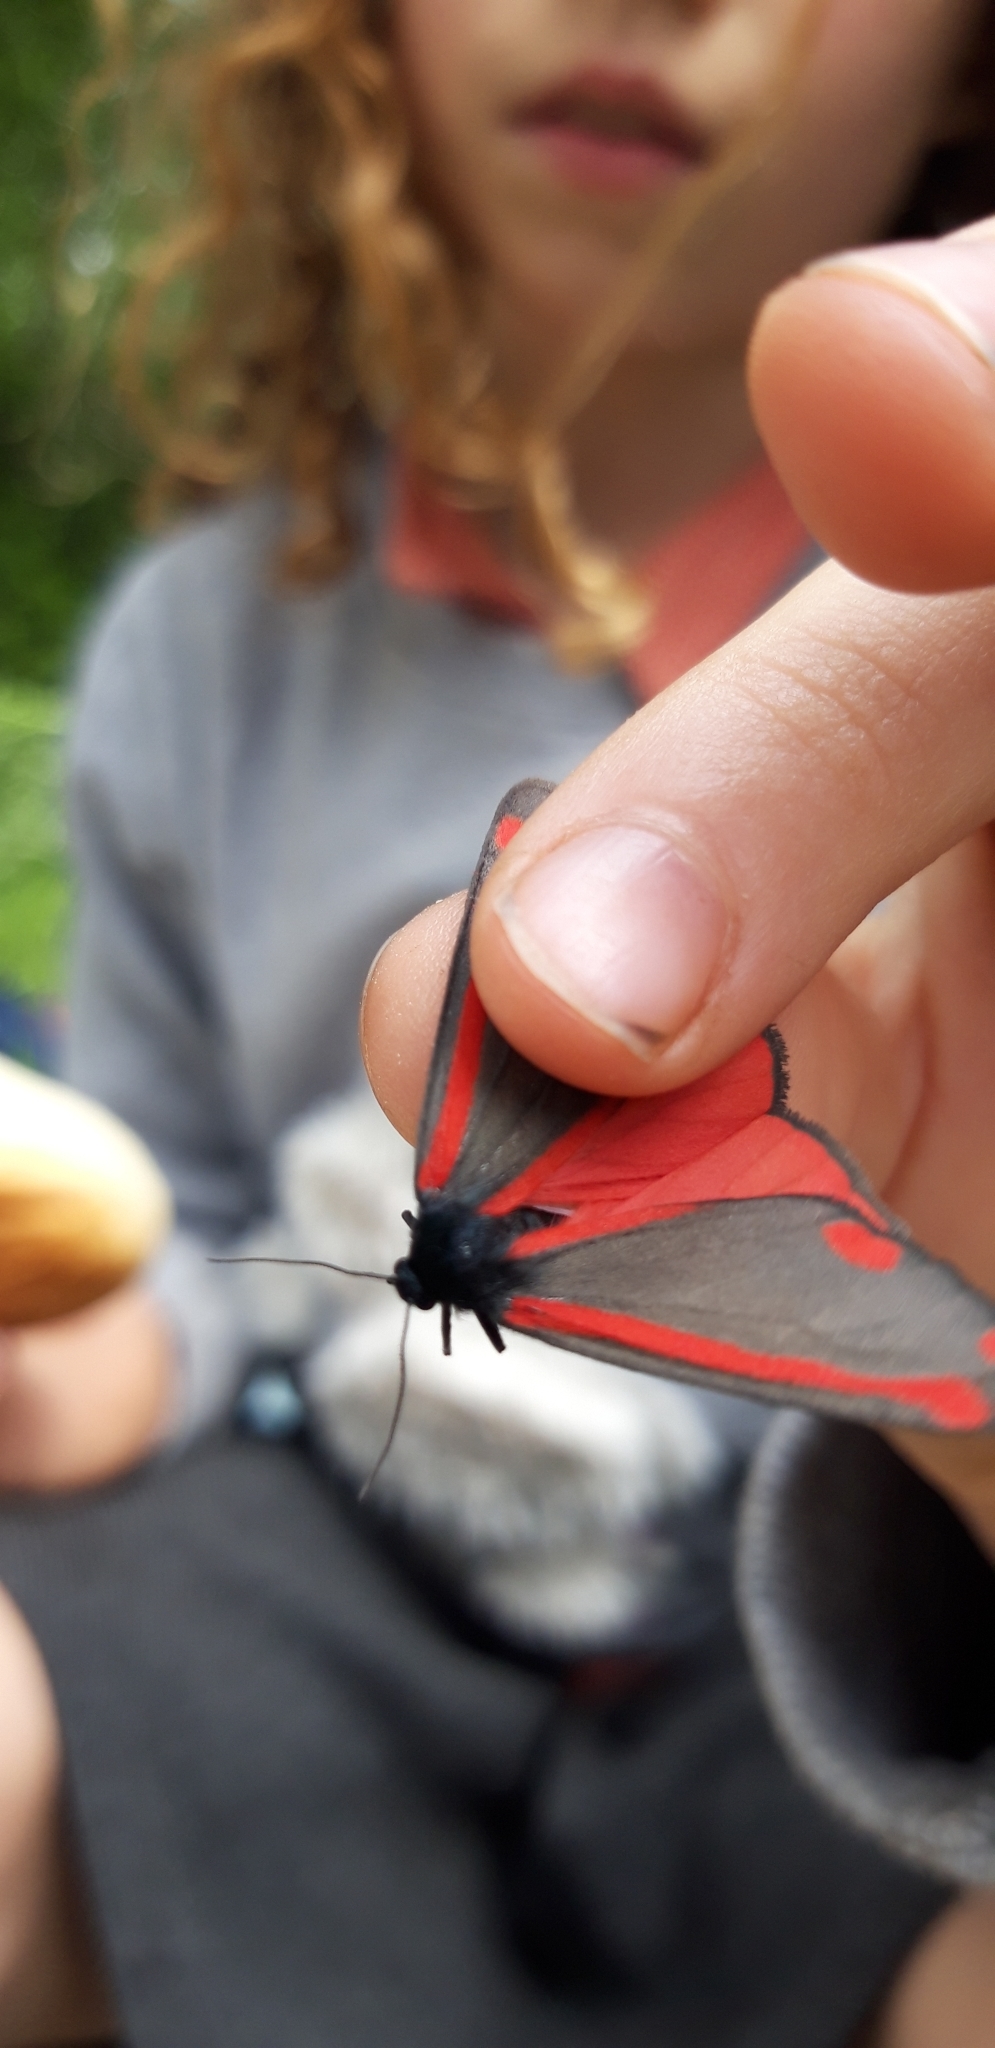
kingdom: Animalia
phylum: Arthropoda
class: Insecta
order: Lepidoptera
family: Erebidae
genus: Tyria
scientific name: Tyria jacobaeae
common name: Cinnabar
